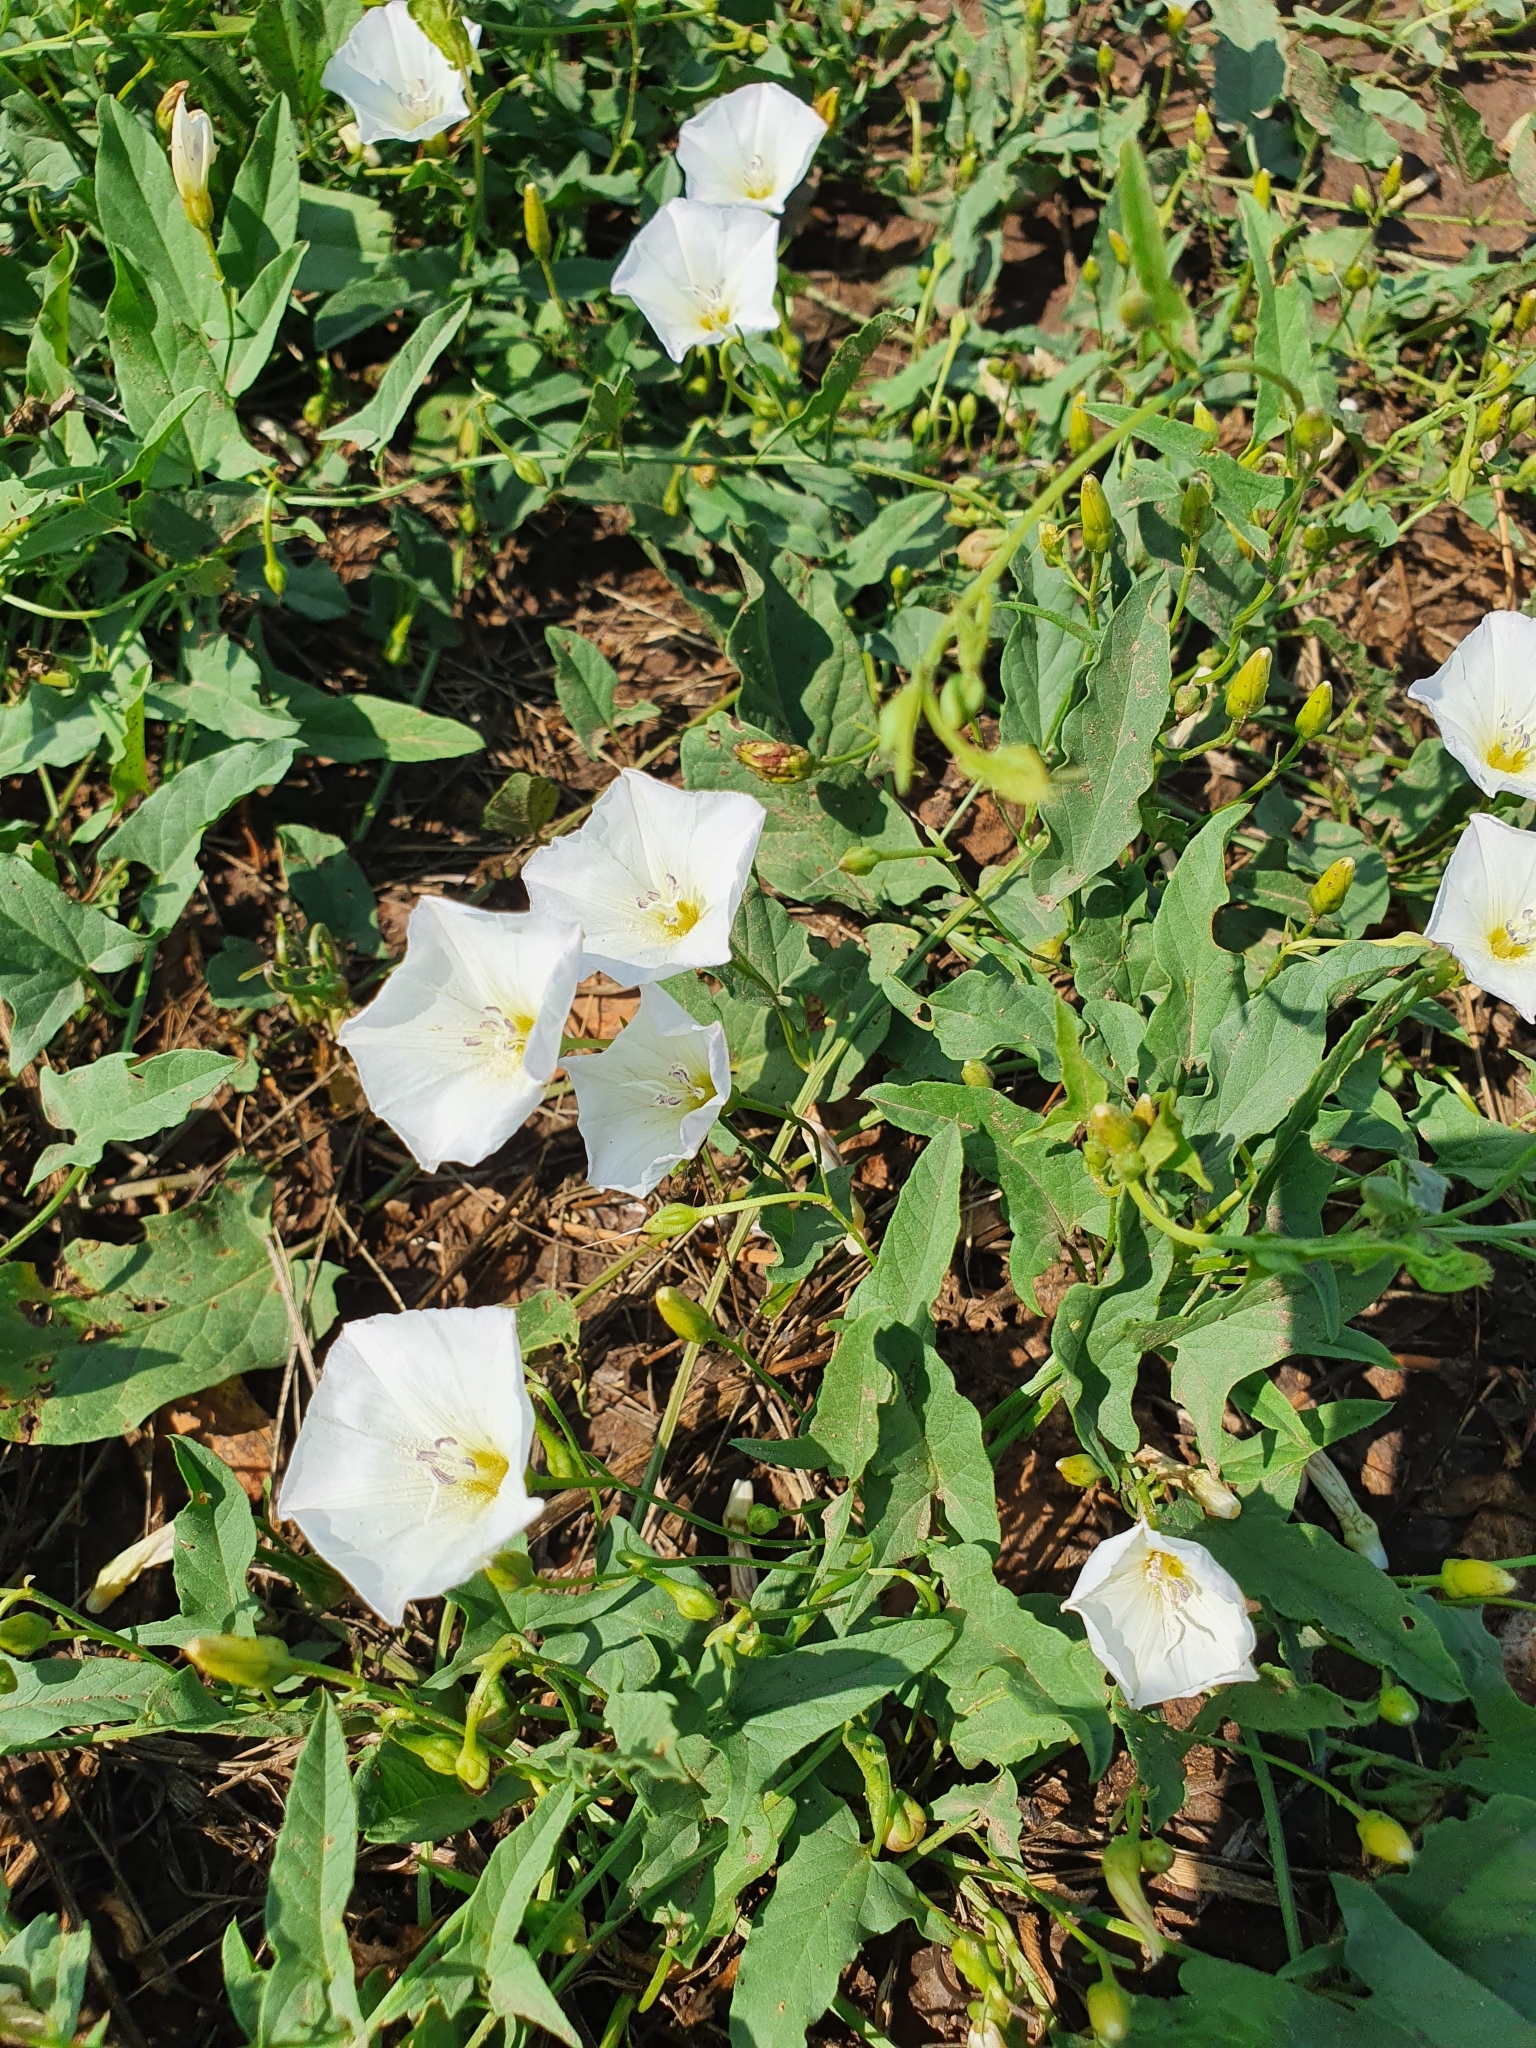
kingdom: Plantae
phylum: Tracheophyta
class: Magnoliopsida
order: Solanales
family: Convolvulaceae
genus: Convolvulus
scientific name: Convolvulus arvensis
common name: Field bindweed
